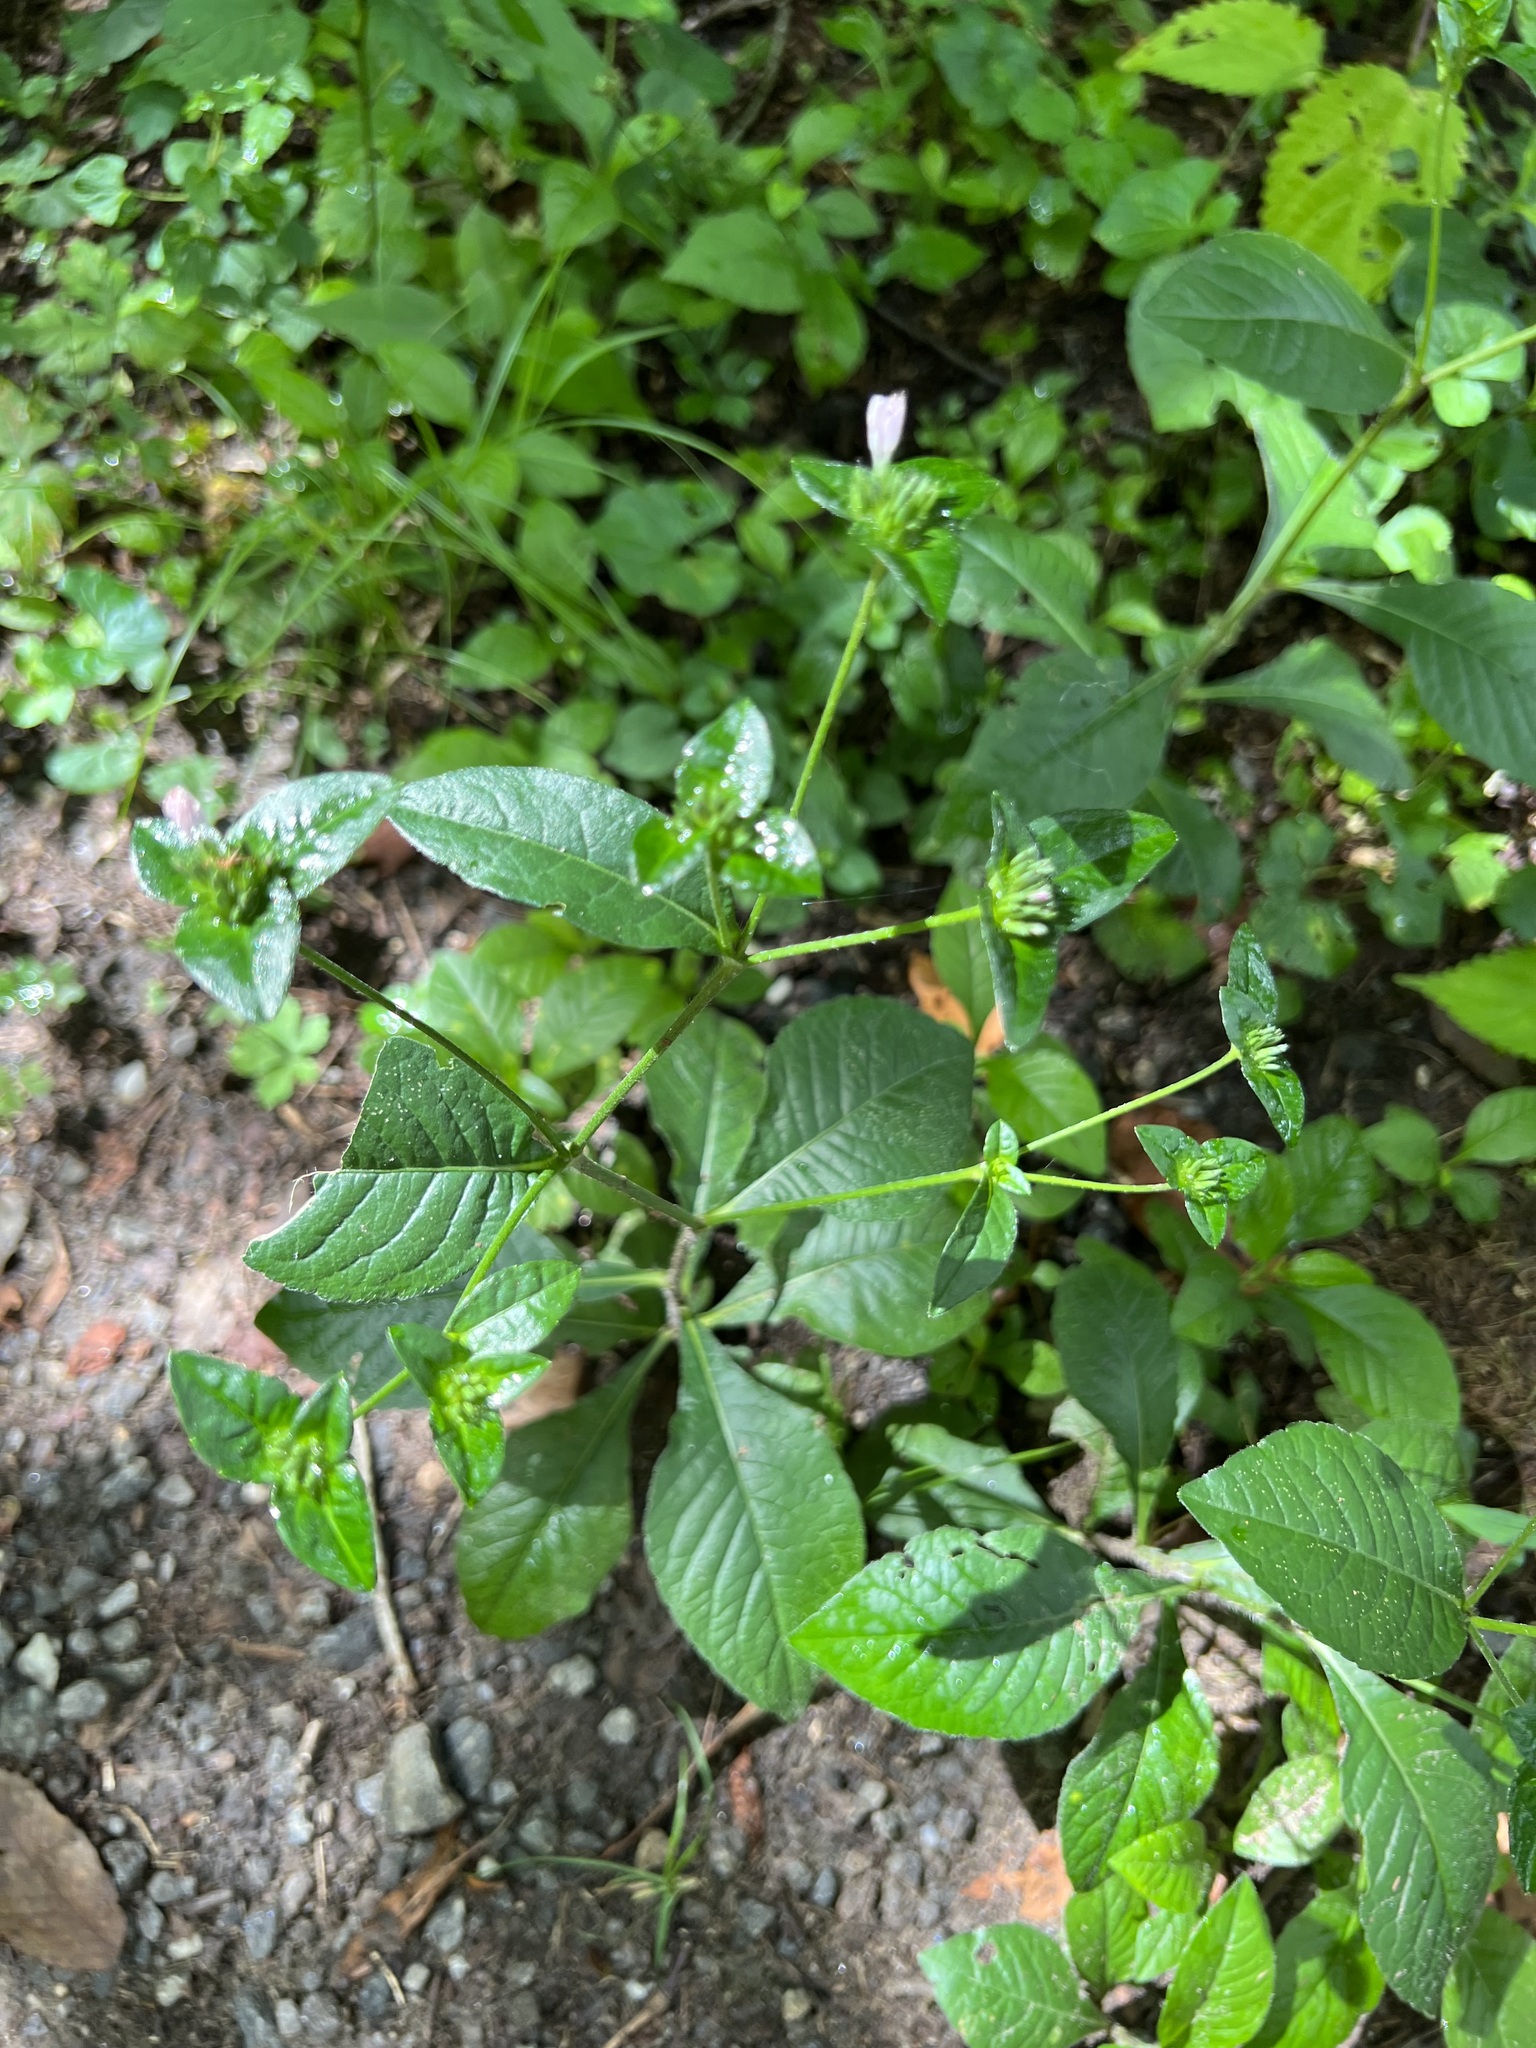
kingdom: Plantae
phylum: Tracheophyta
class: Magnoliopsida
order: Asterales
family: Asteraceae
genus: Elephantopus
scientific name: Elephantopus carolinianus
